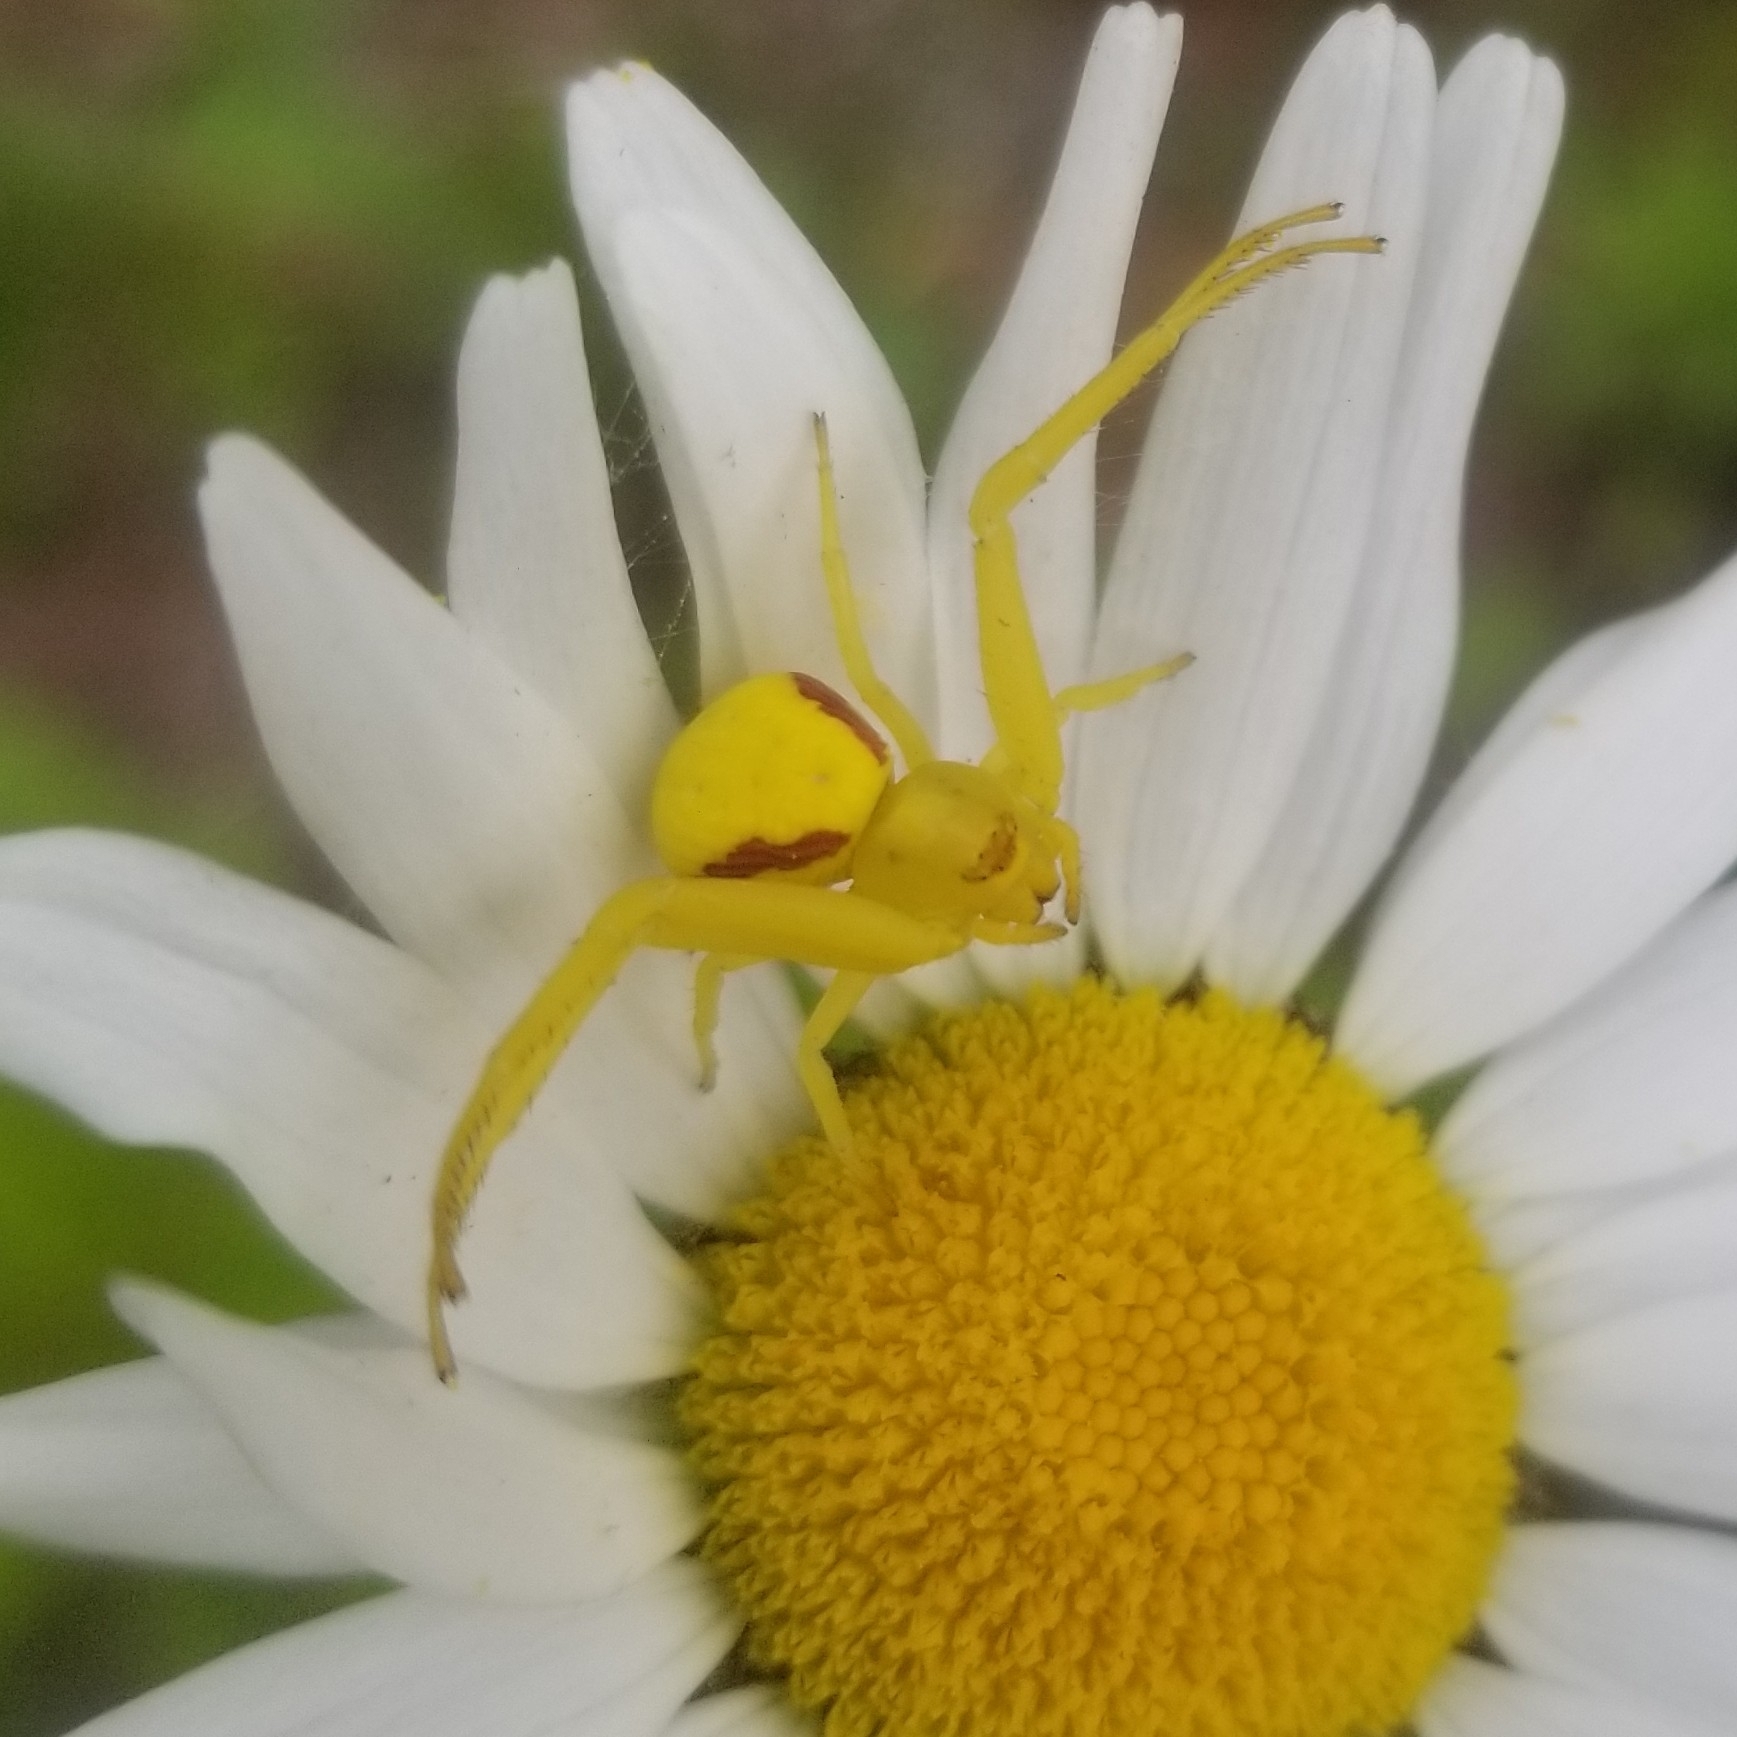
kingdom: Animalia
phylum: Arthropoda
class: Arachnida
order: Araneae
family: Thomisidae
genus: Misumena
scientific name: Misumena vatia
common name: Goldenrod crab spider
